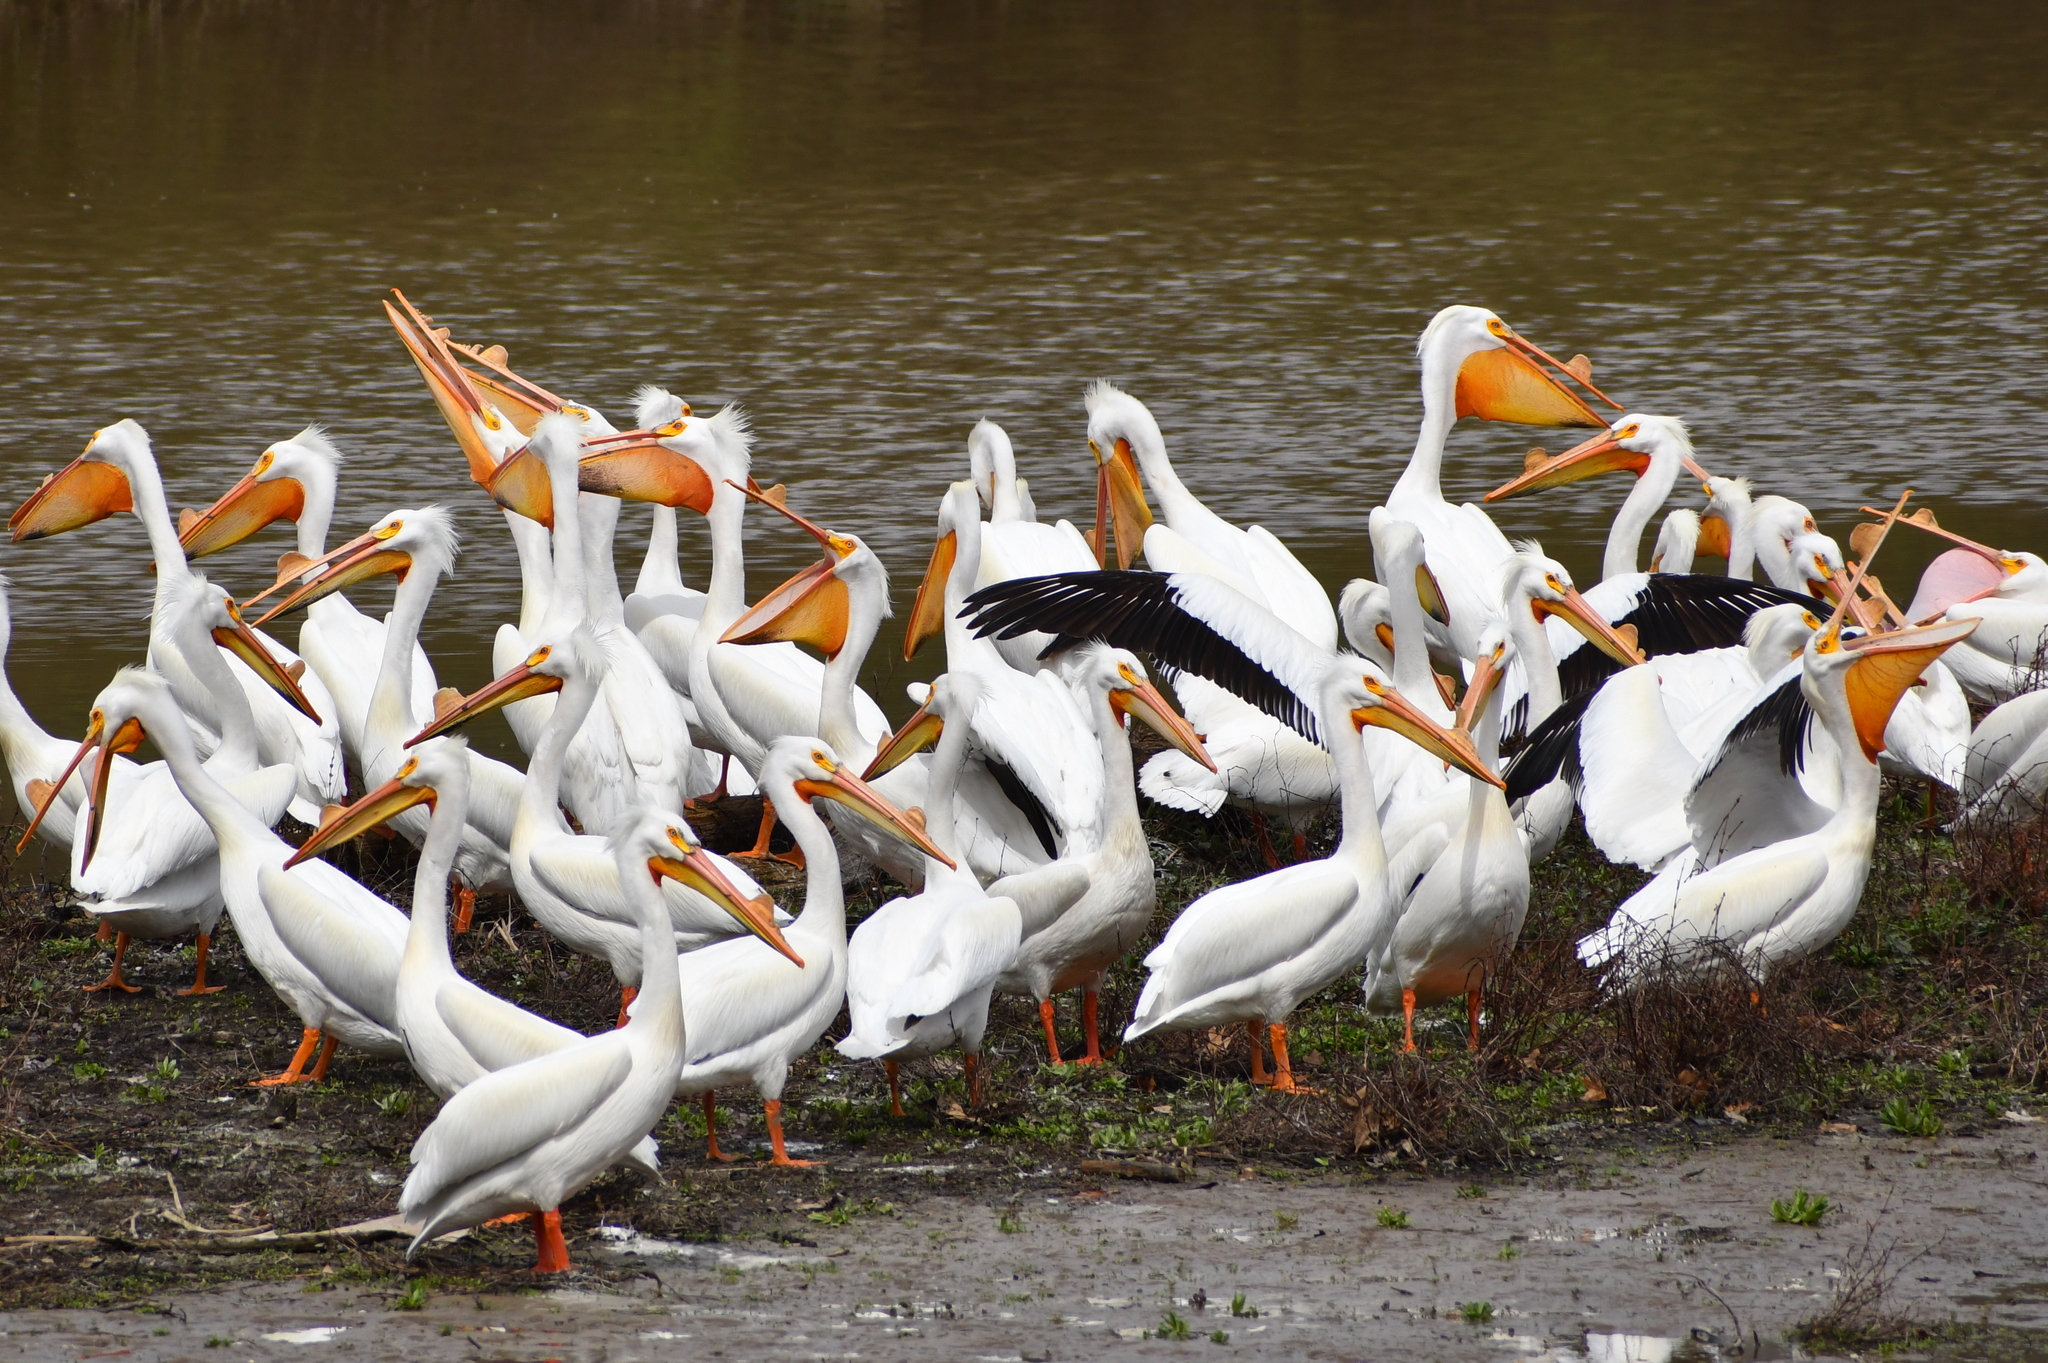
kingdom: Animalia
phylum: Chordata
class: Aves
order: Pelecaniformes
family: Pelecanidae
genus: Pelecanus
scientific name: Pelecanus erythrorhynchos
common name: American white pelican
